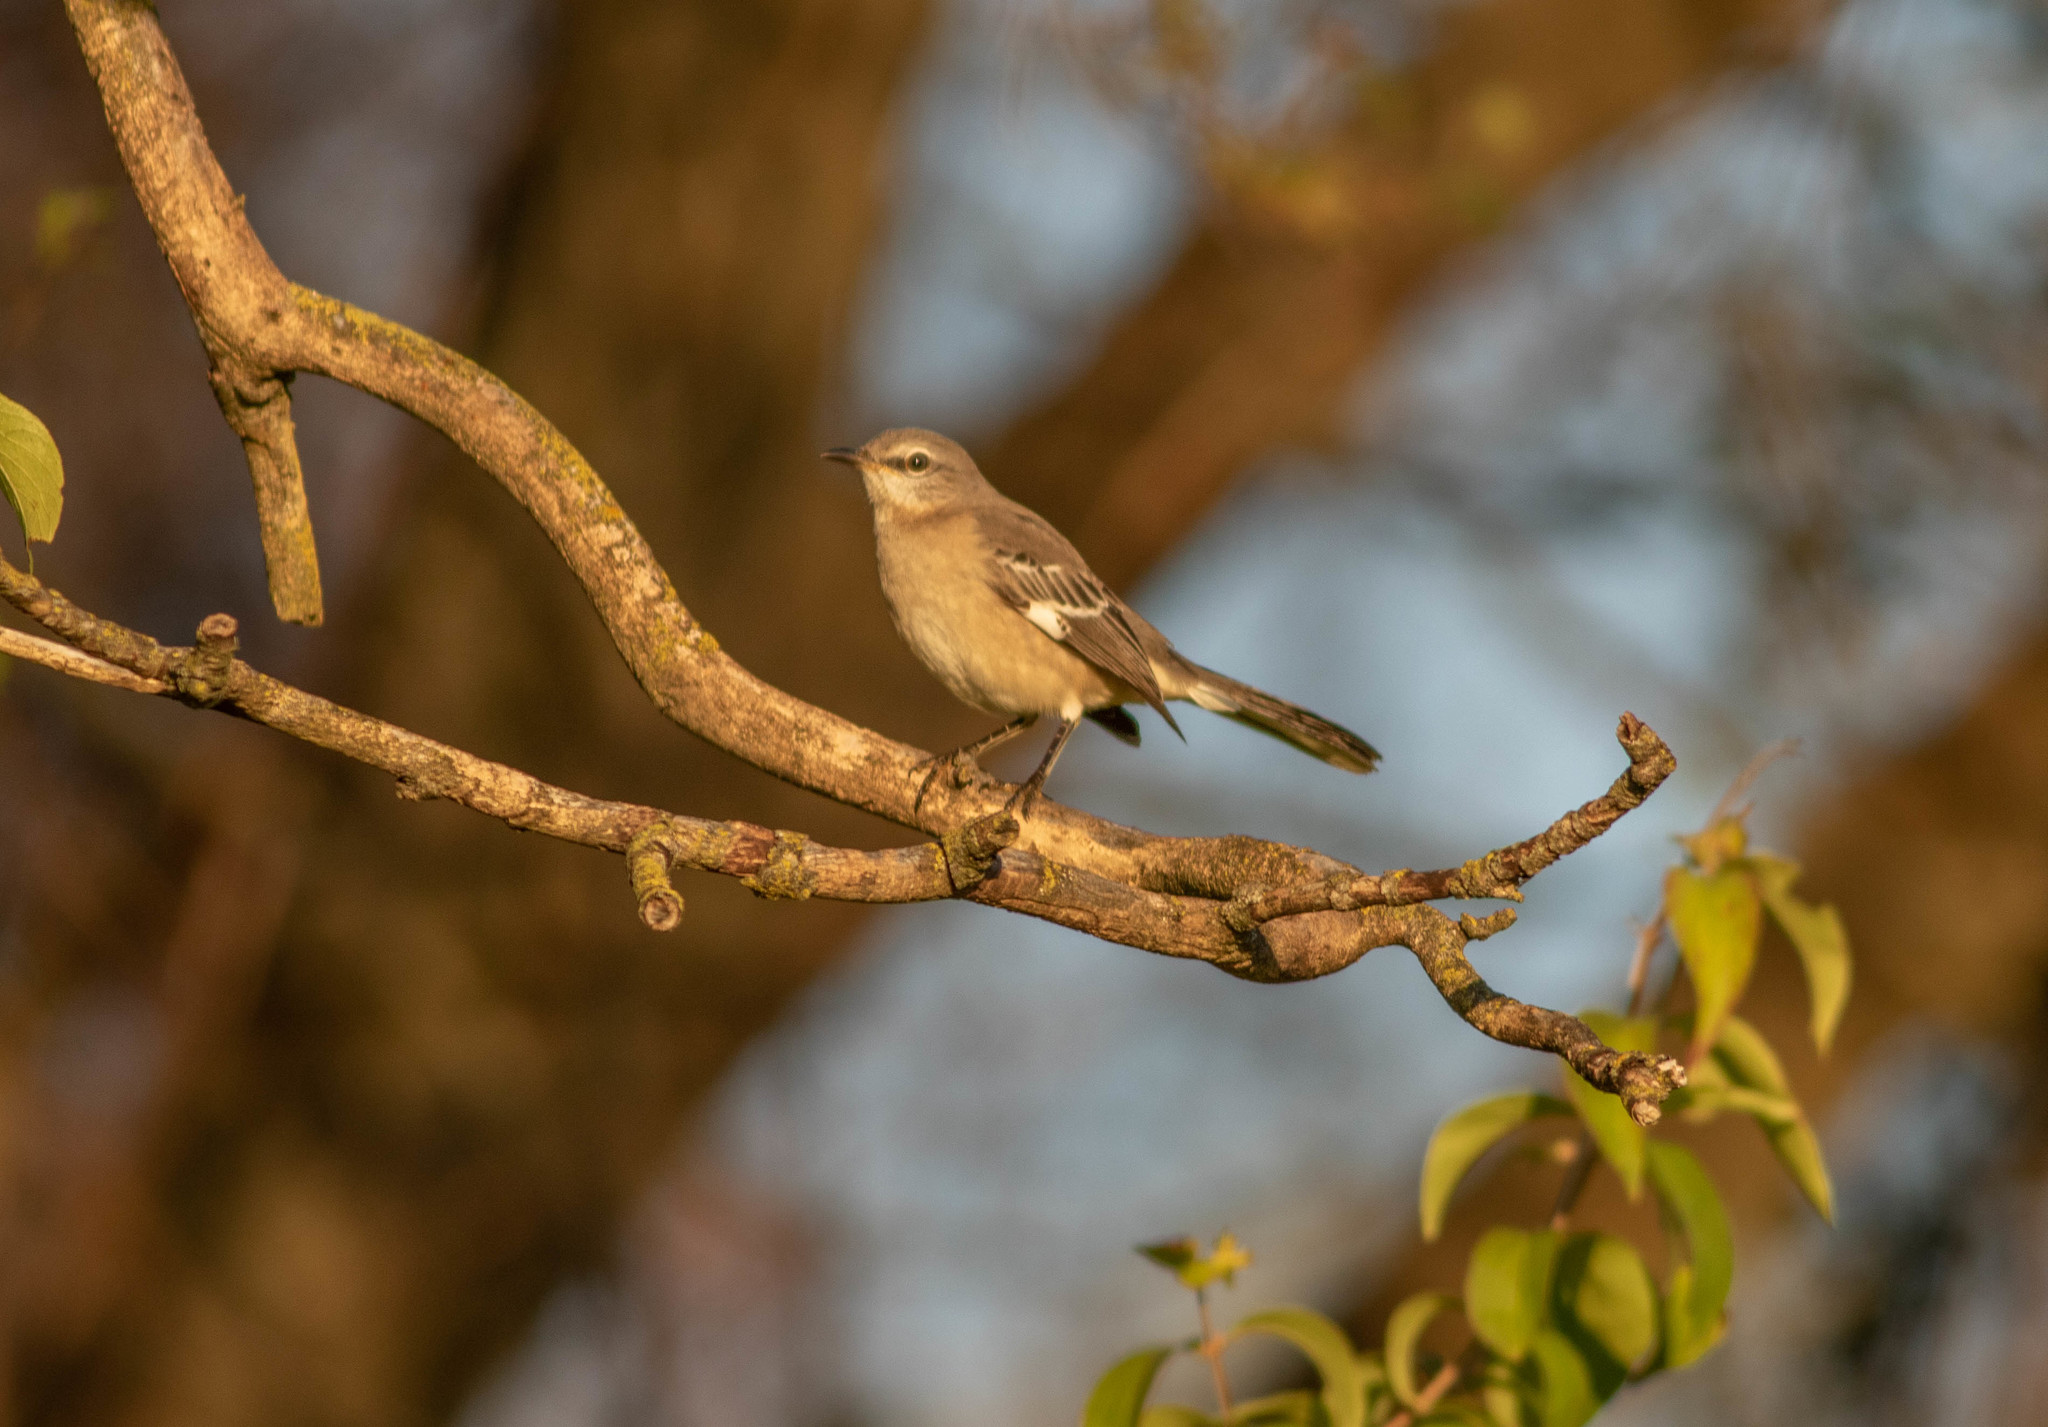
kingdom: Animalia
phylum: Chordata
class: Aves
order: Passeriformes
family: Mimidae
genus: Mimus
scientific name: Mimus polyglottos
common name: Northern mockingbird
